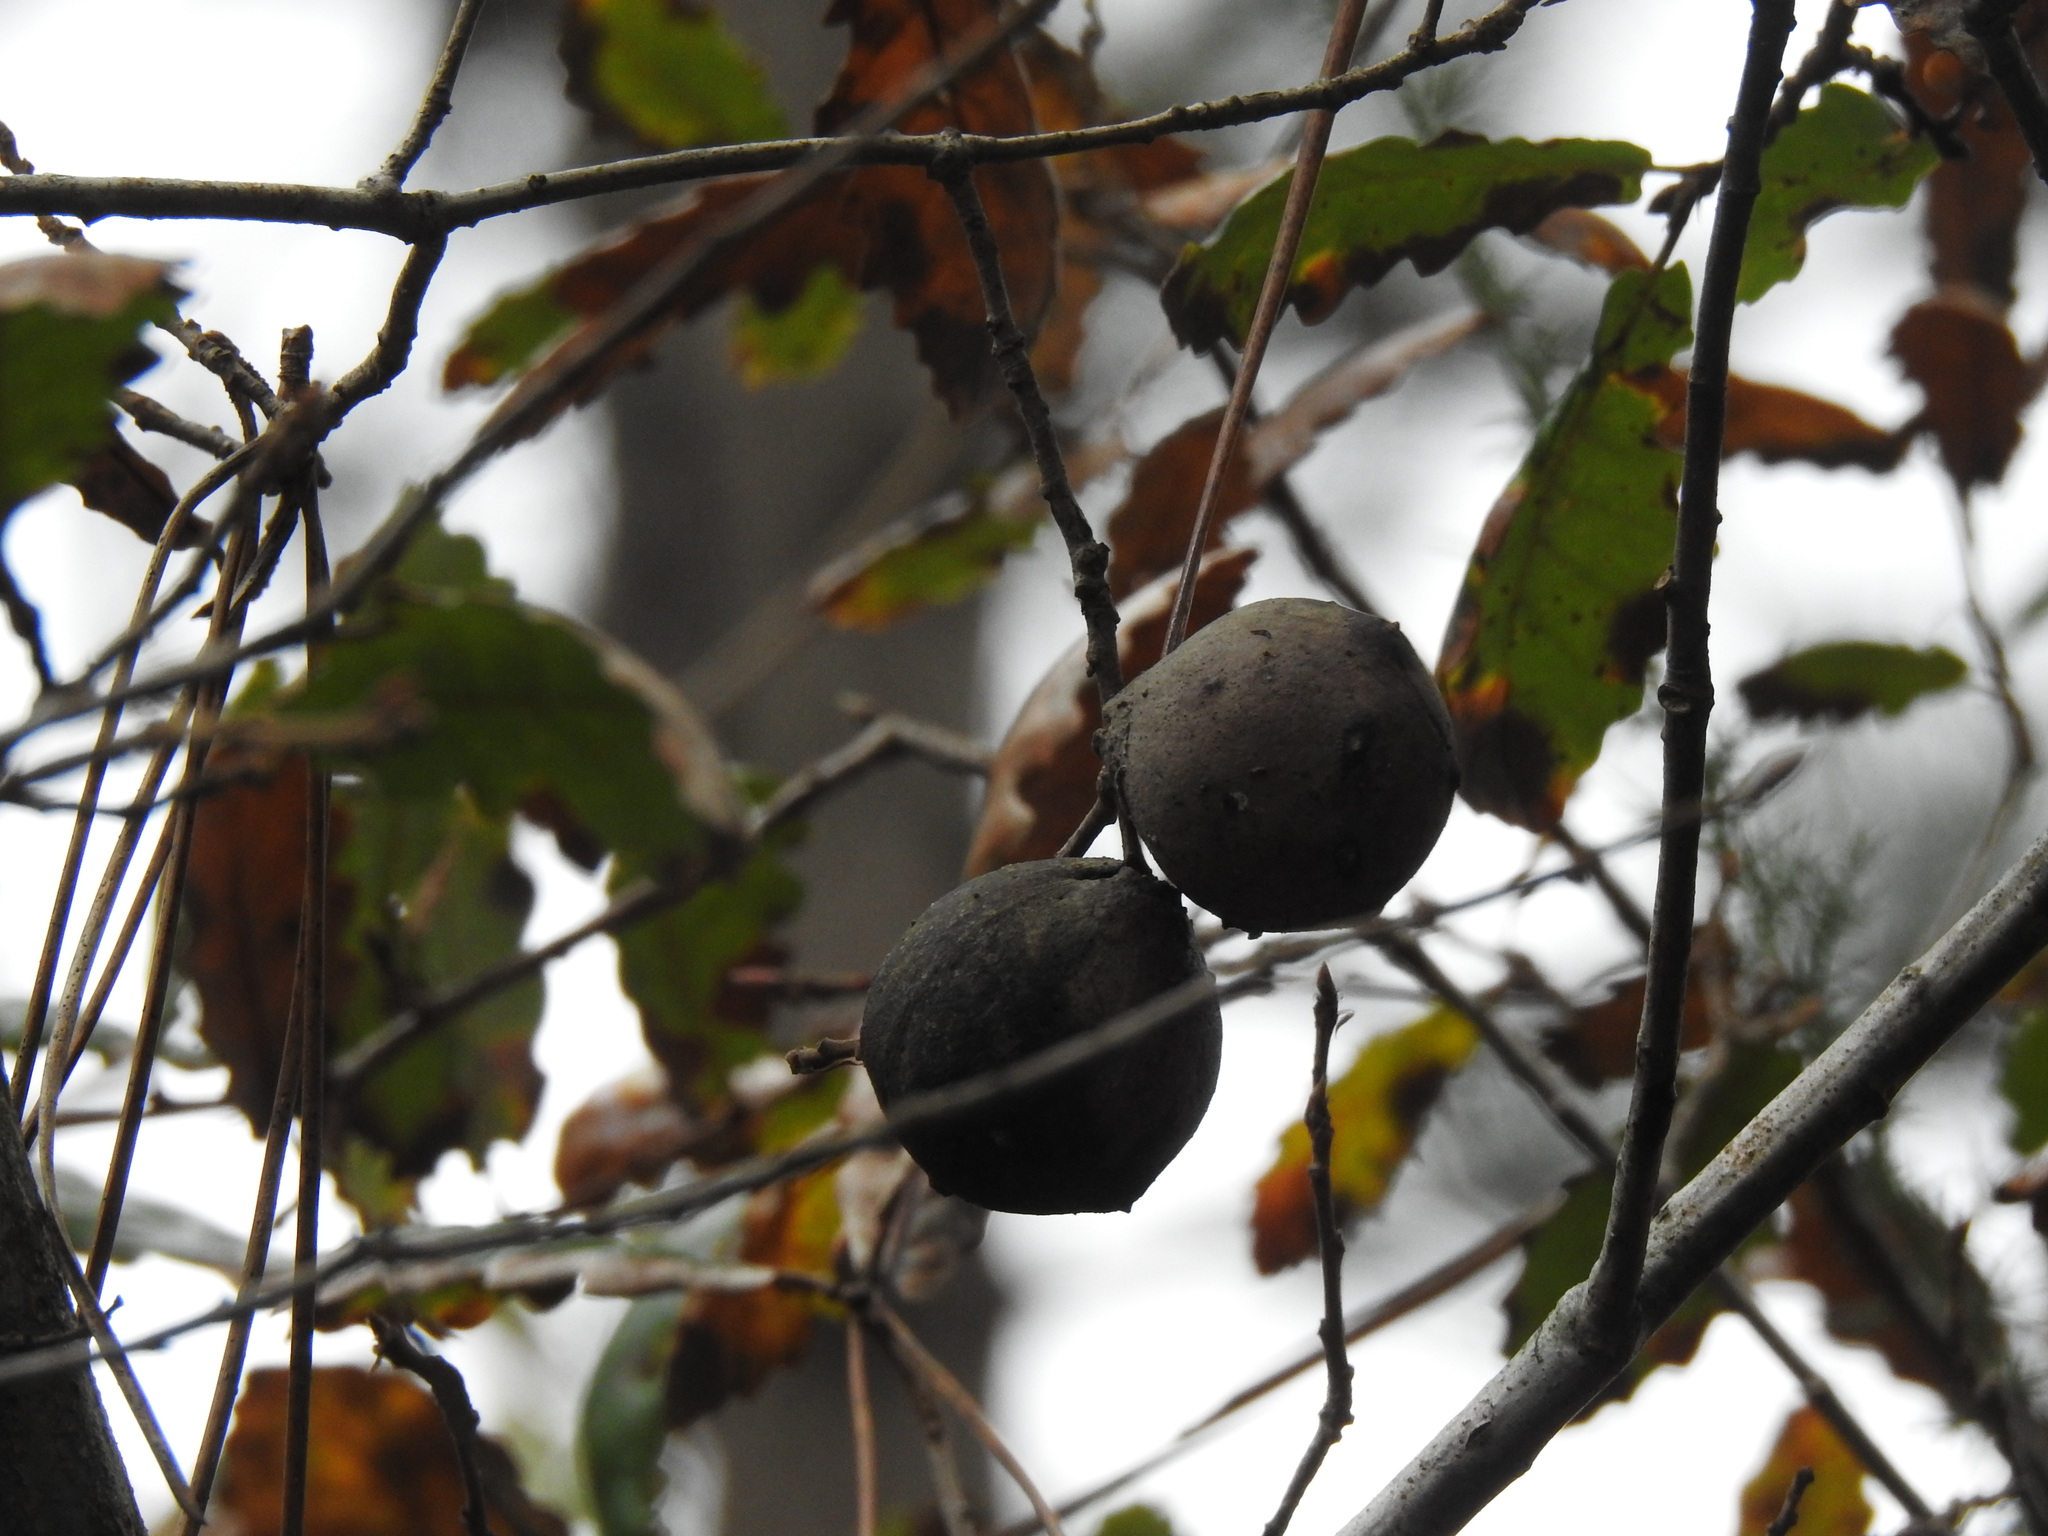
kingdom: Animalia
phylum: Arthropoda
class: Insecta
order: Hymenoptera
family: Cynipidae
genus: Andricus
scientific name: Andricus quercustozae
